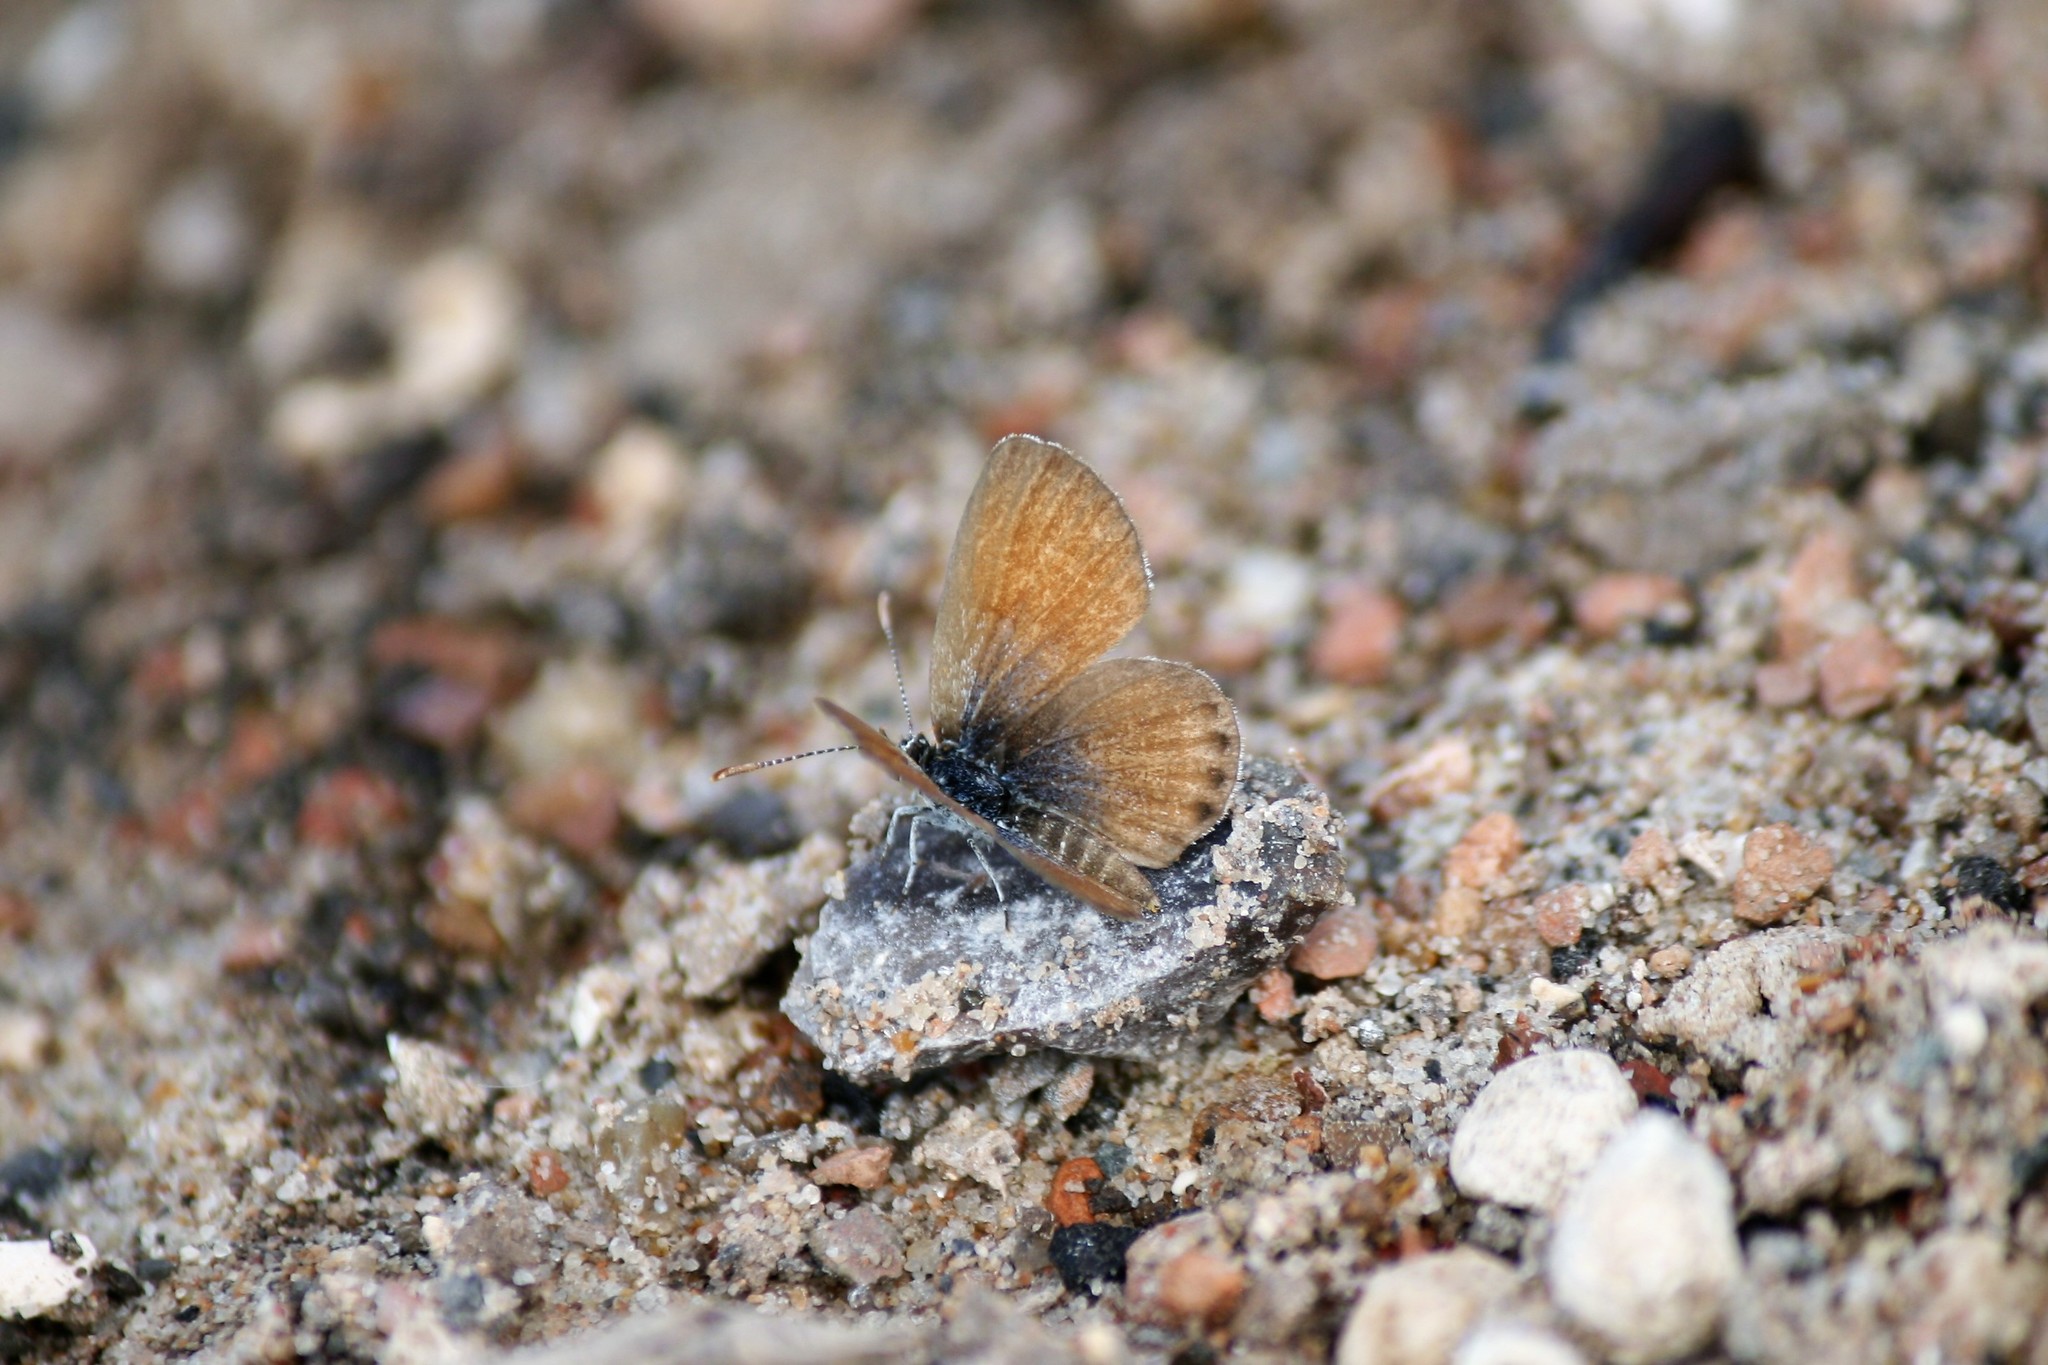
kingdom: Animalia
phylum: Arthropoda
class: Insecta
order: Lepidoptera
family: Lycaenidae
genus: Brephidium
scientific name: Brephidium exilis
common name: Pygmy blue
